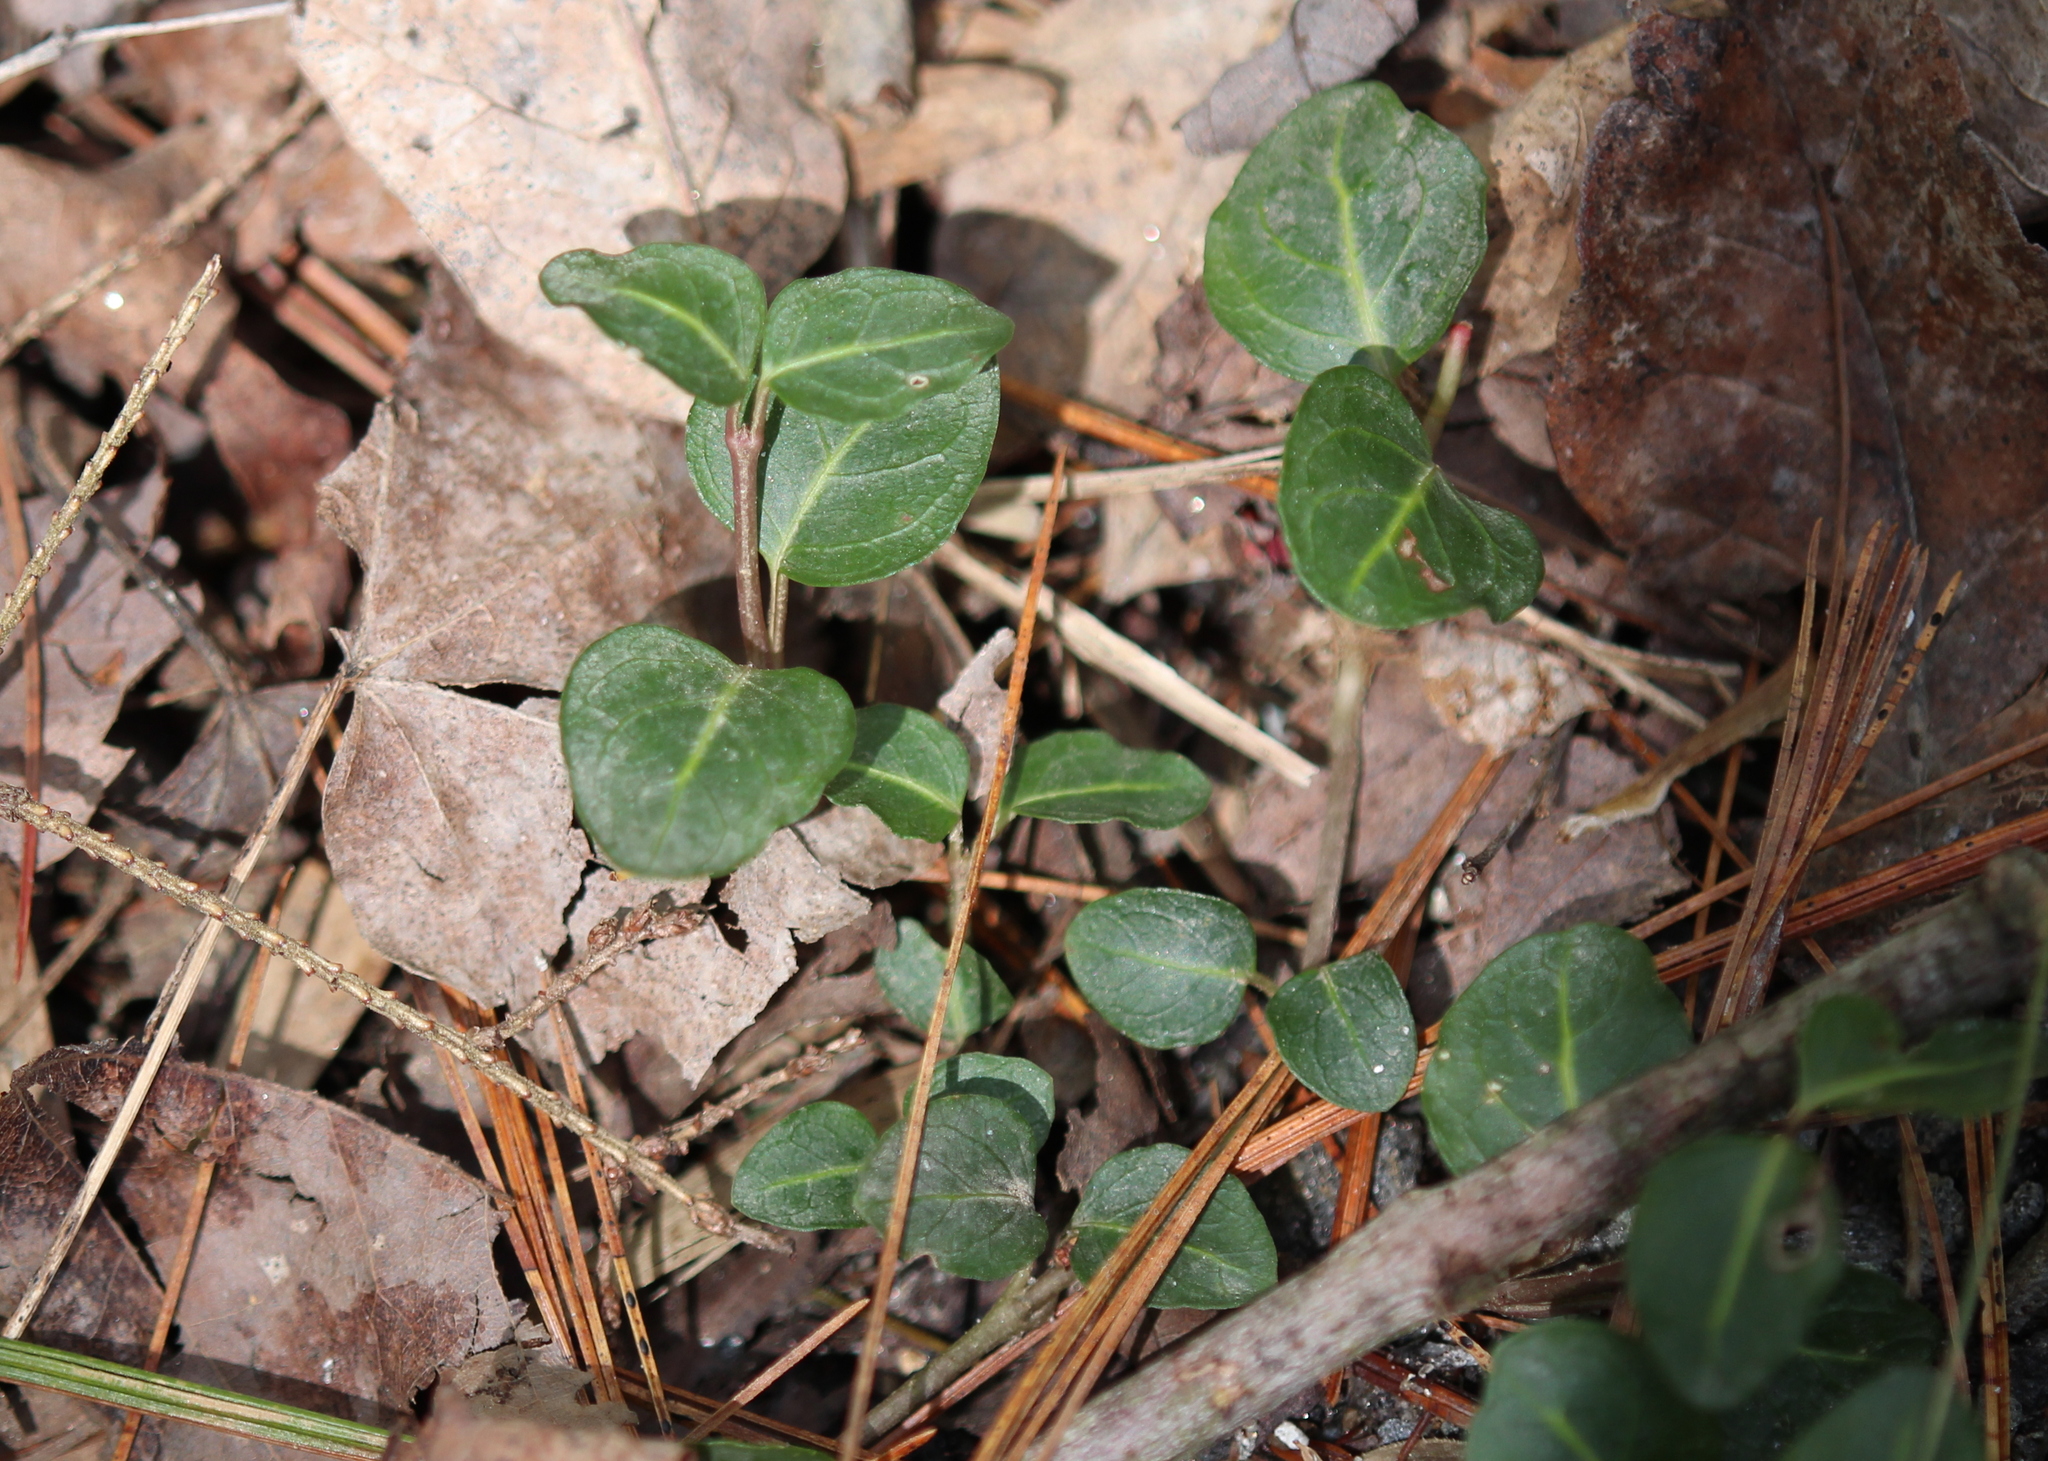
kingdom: Plantae
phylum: Tracheophyta
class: Magnoliopsida
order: Gentianales
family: Rubiaceae
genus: Mitchella
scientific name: Mitchella repens
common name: Partridge-berry
